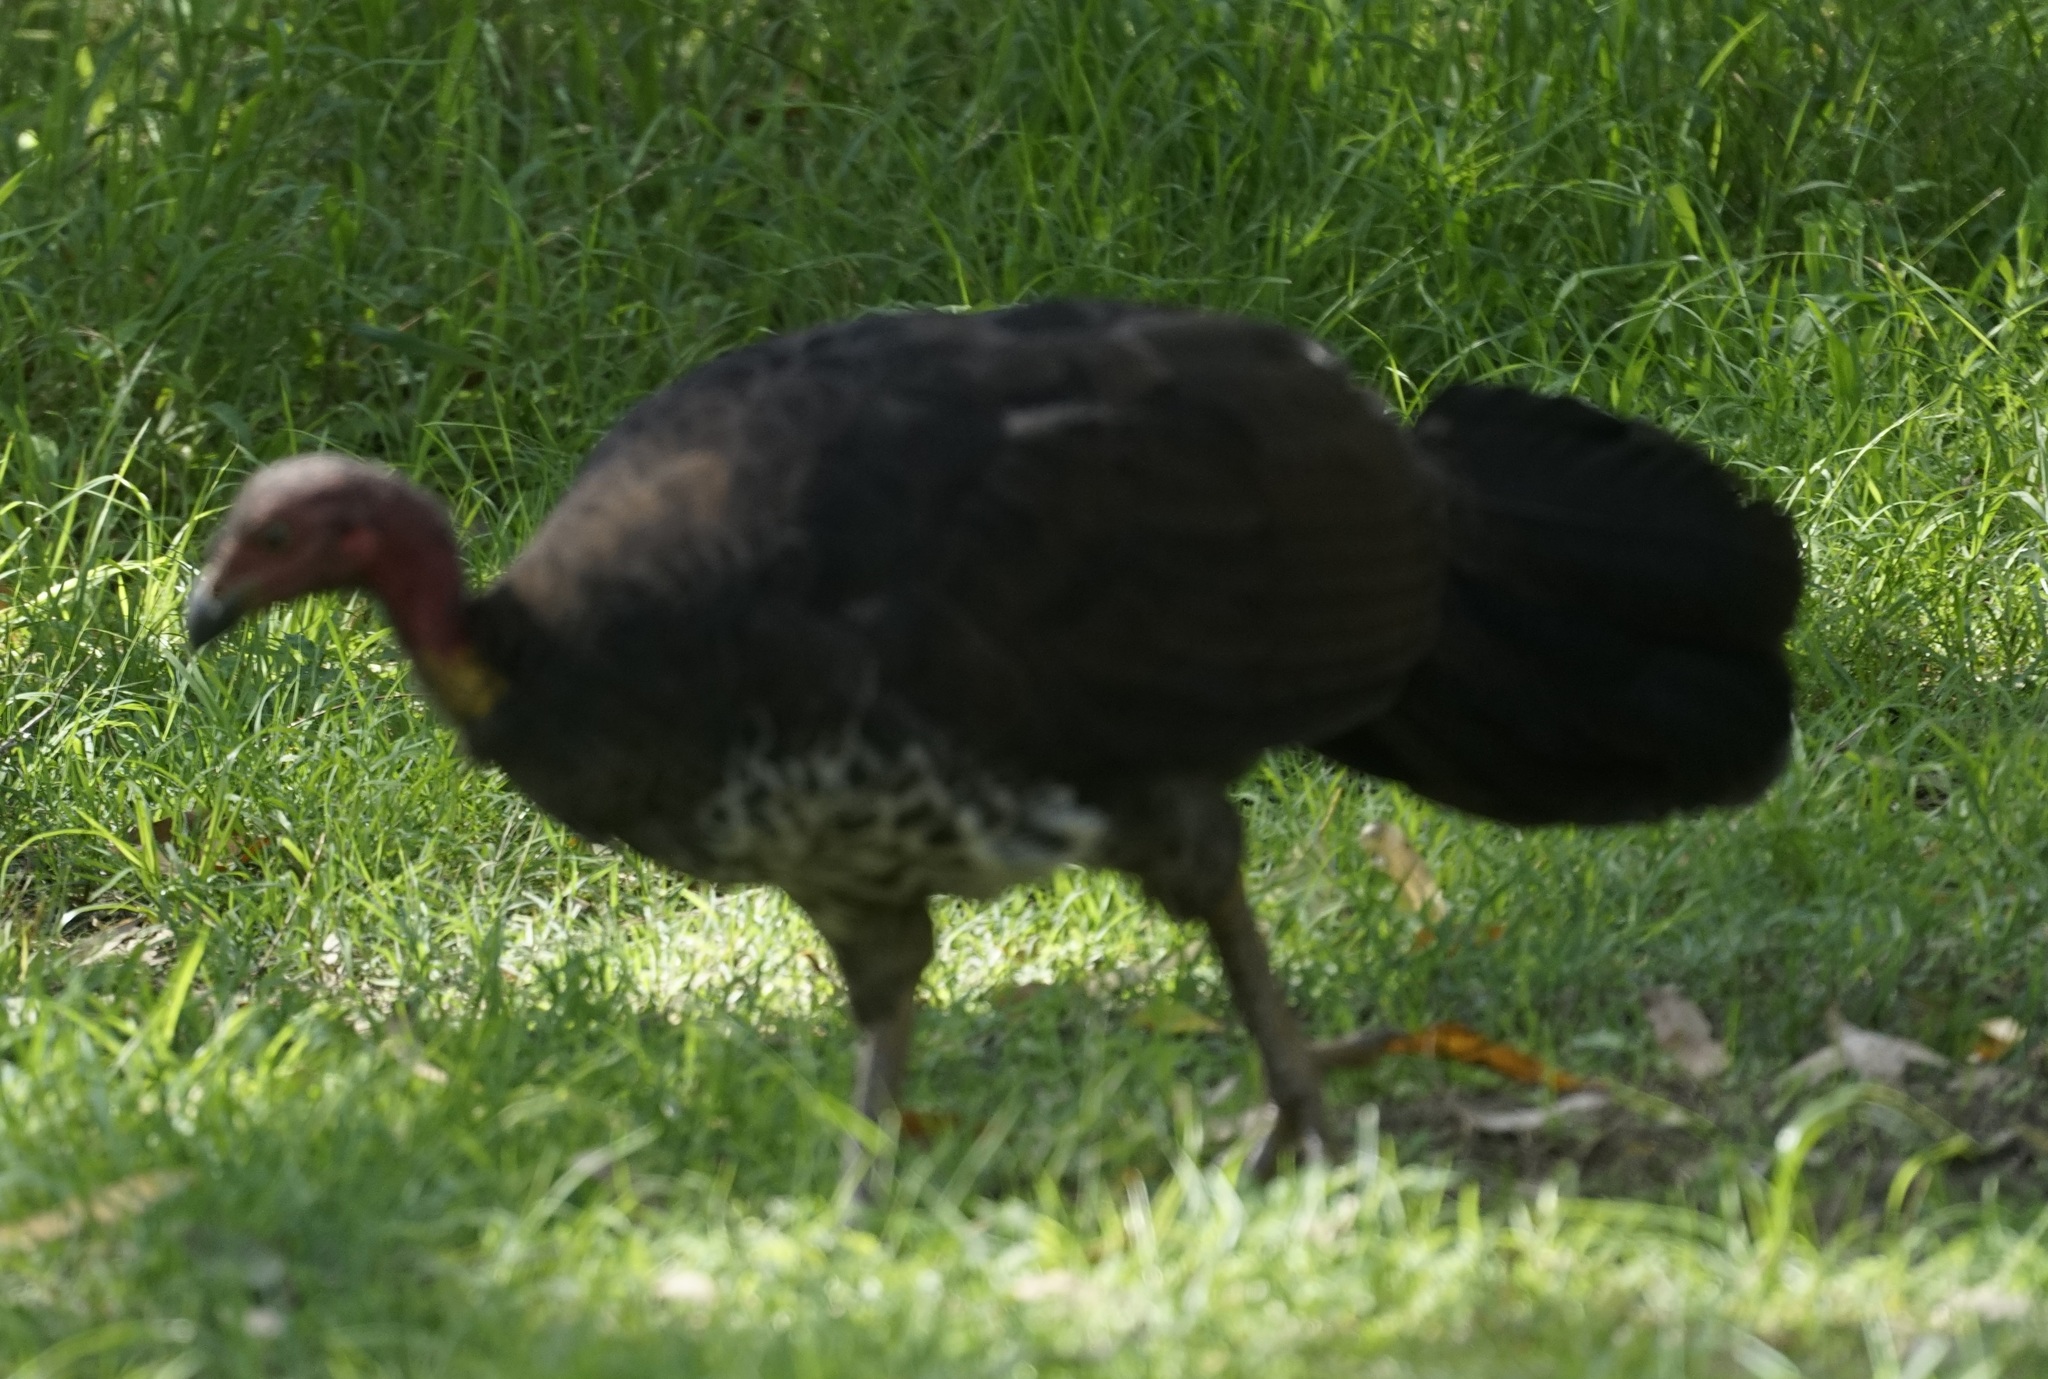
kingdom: Animalia
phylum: Chordata
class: Aves
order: Galliformes
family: Megapodiidae
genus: Alectura
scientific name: Alectura lathami
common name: Australian brushturkey
